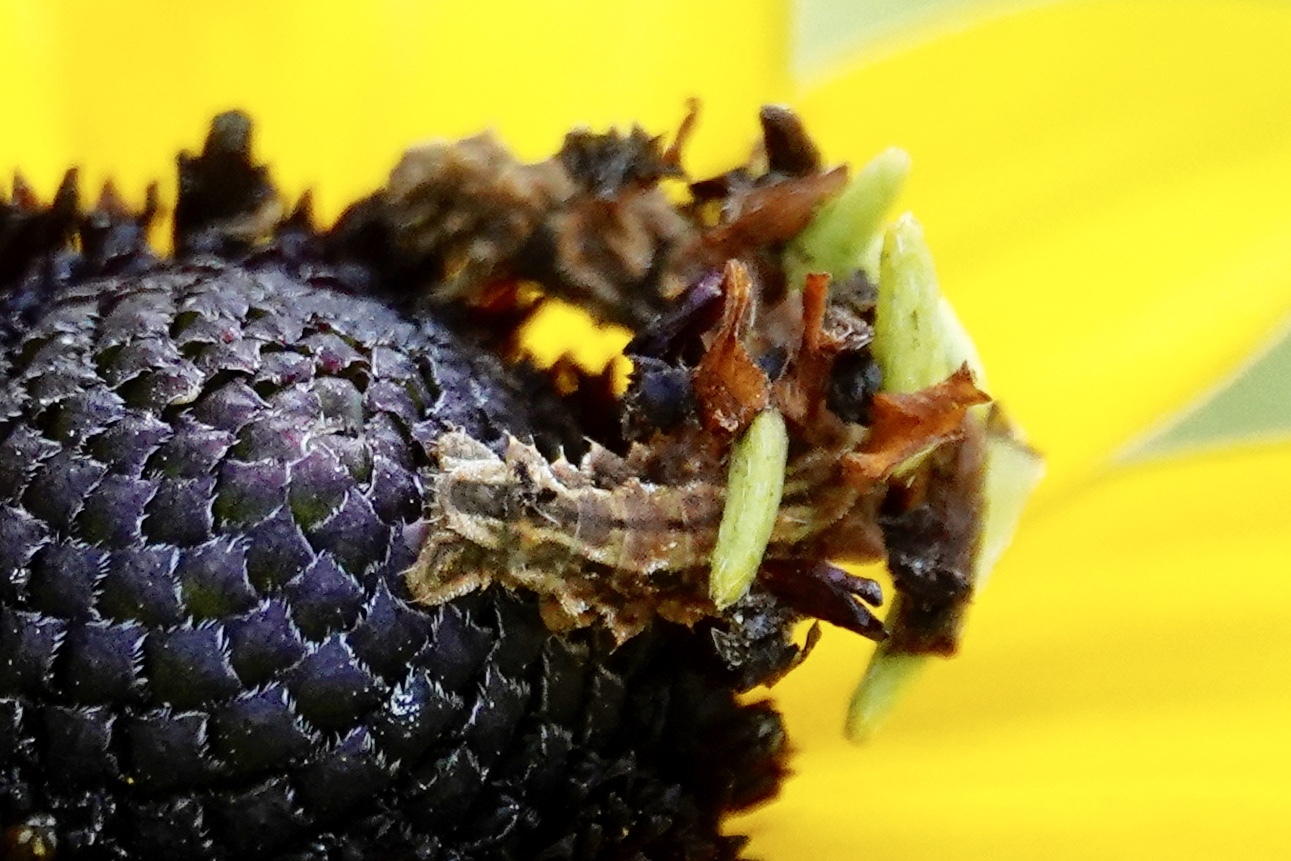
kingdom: Animalia
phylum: Arthropoda
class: Insecta
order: Lepidoptera
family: Geometridae
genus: Synchlora
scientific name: Synchlora aerata
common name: Wavy-lined emerald
